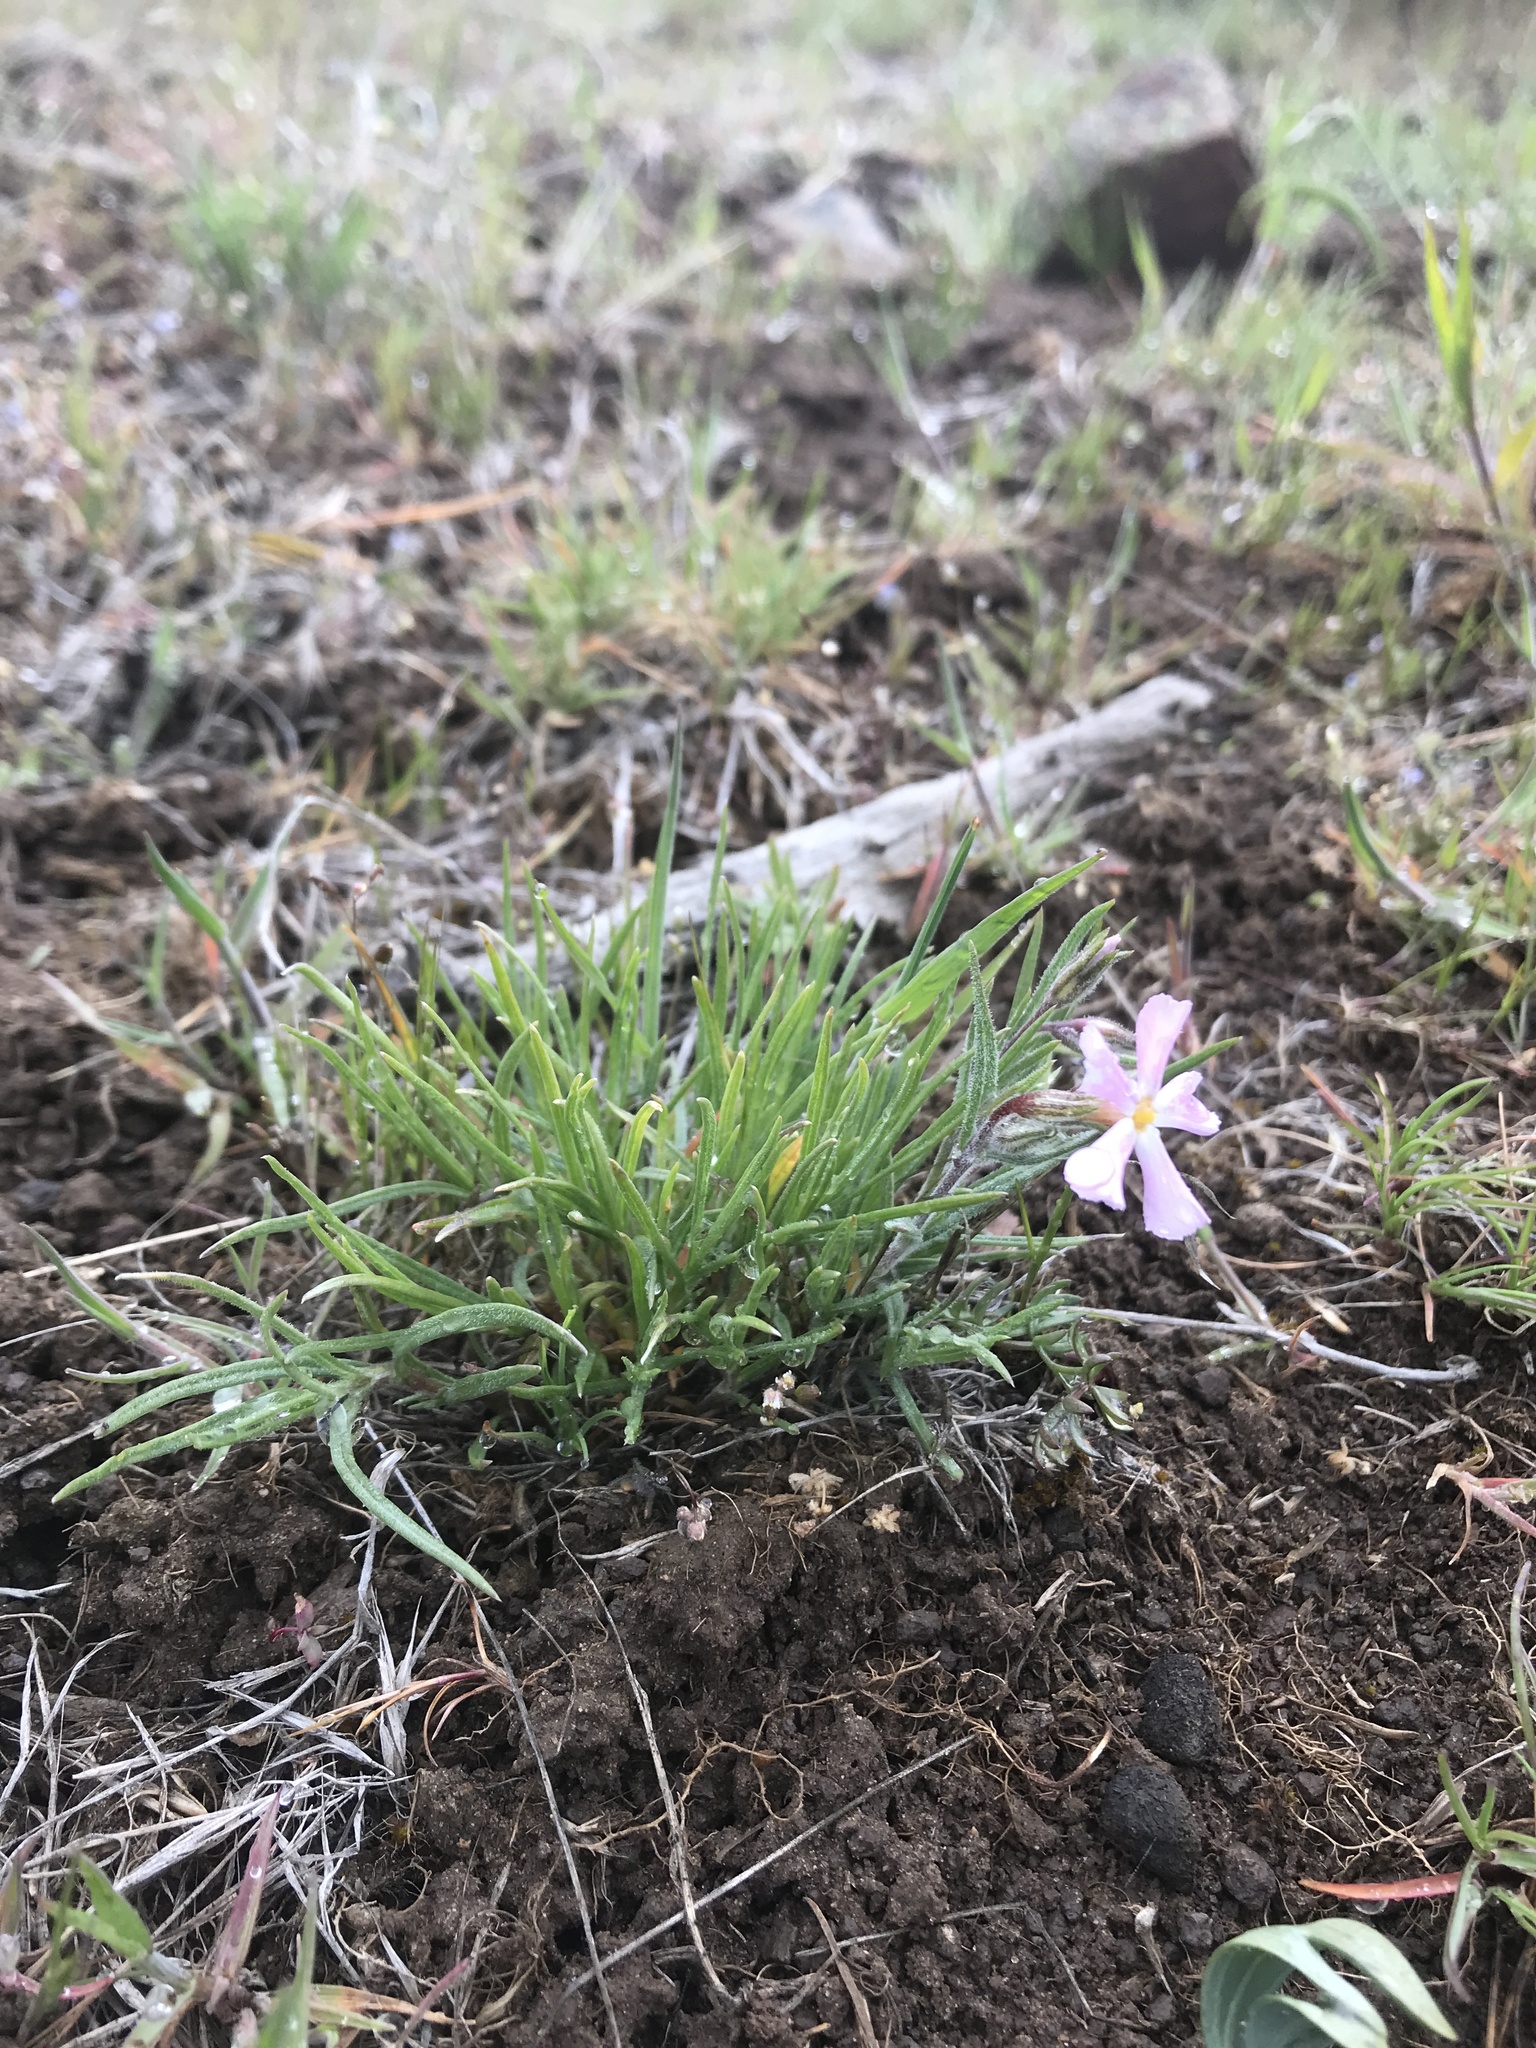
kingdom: Plantae
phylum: Tracheophyta
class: Magnoliopsida
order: Ericales
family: Polemoniaceae
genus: Phlox
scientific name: Phlox longifolia
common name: Longleaf phlox
